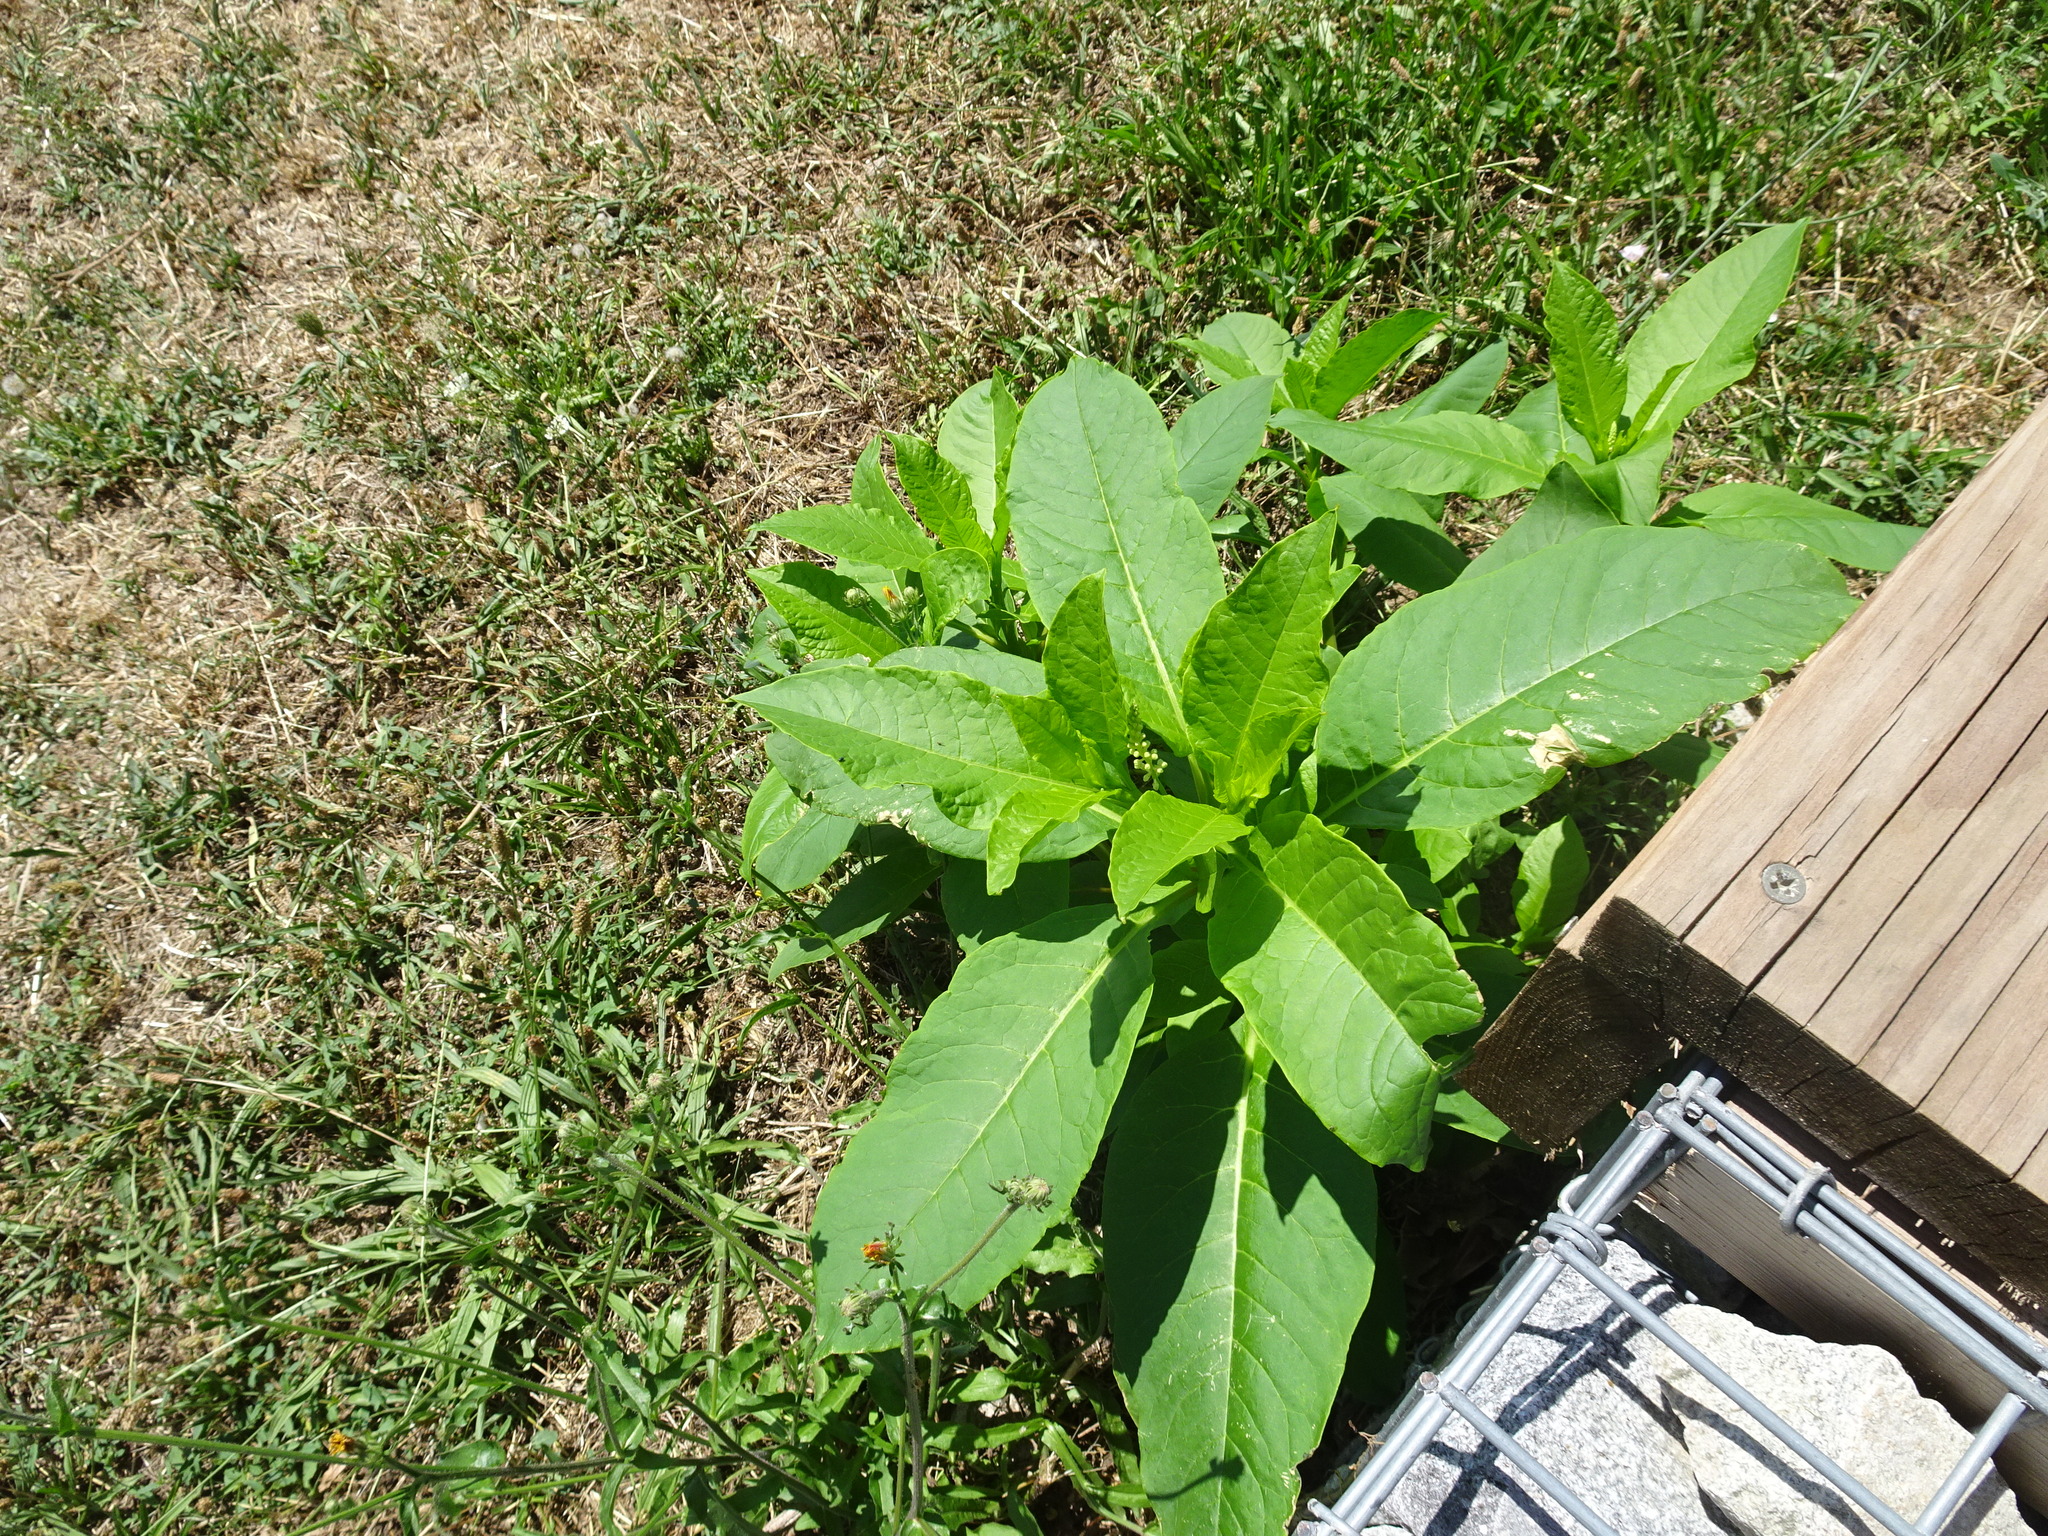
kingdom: Plantae
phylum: Tracheophyta
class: Magnoliopsida
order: Caryophyllales
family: Phytolaccaceae
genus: Phytolacca
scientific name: Phytolacca americana
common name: American pokeweed
